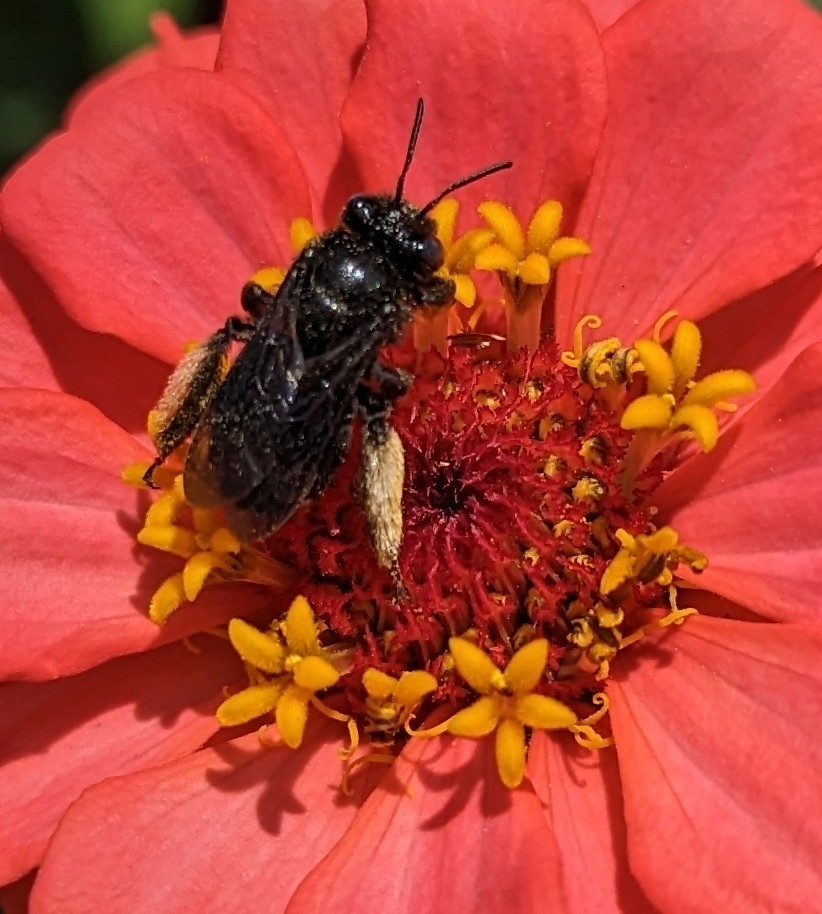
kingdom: Animalia
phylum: Arthropoda
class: Insecta
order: Hymenoptera
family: Apidae
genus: Melissodes
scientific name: Melissodes bimaculatus
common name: Two-spotted long-horned bee
